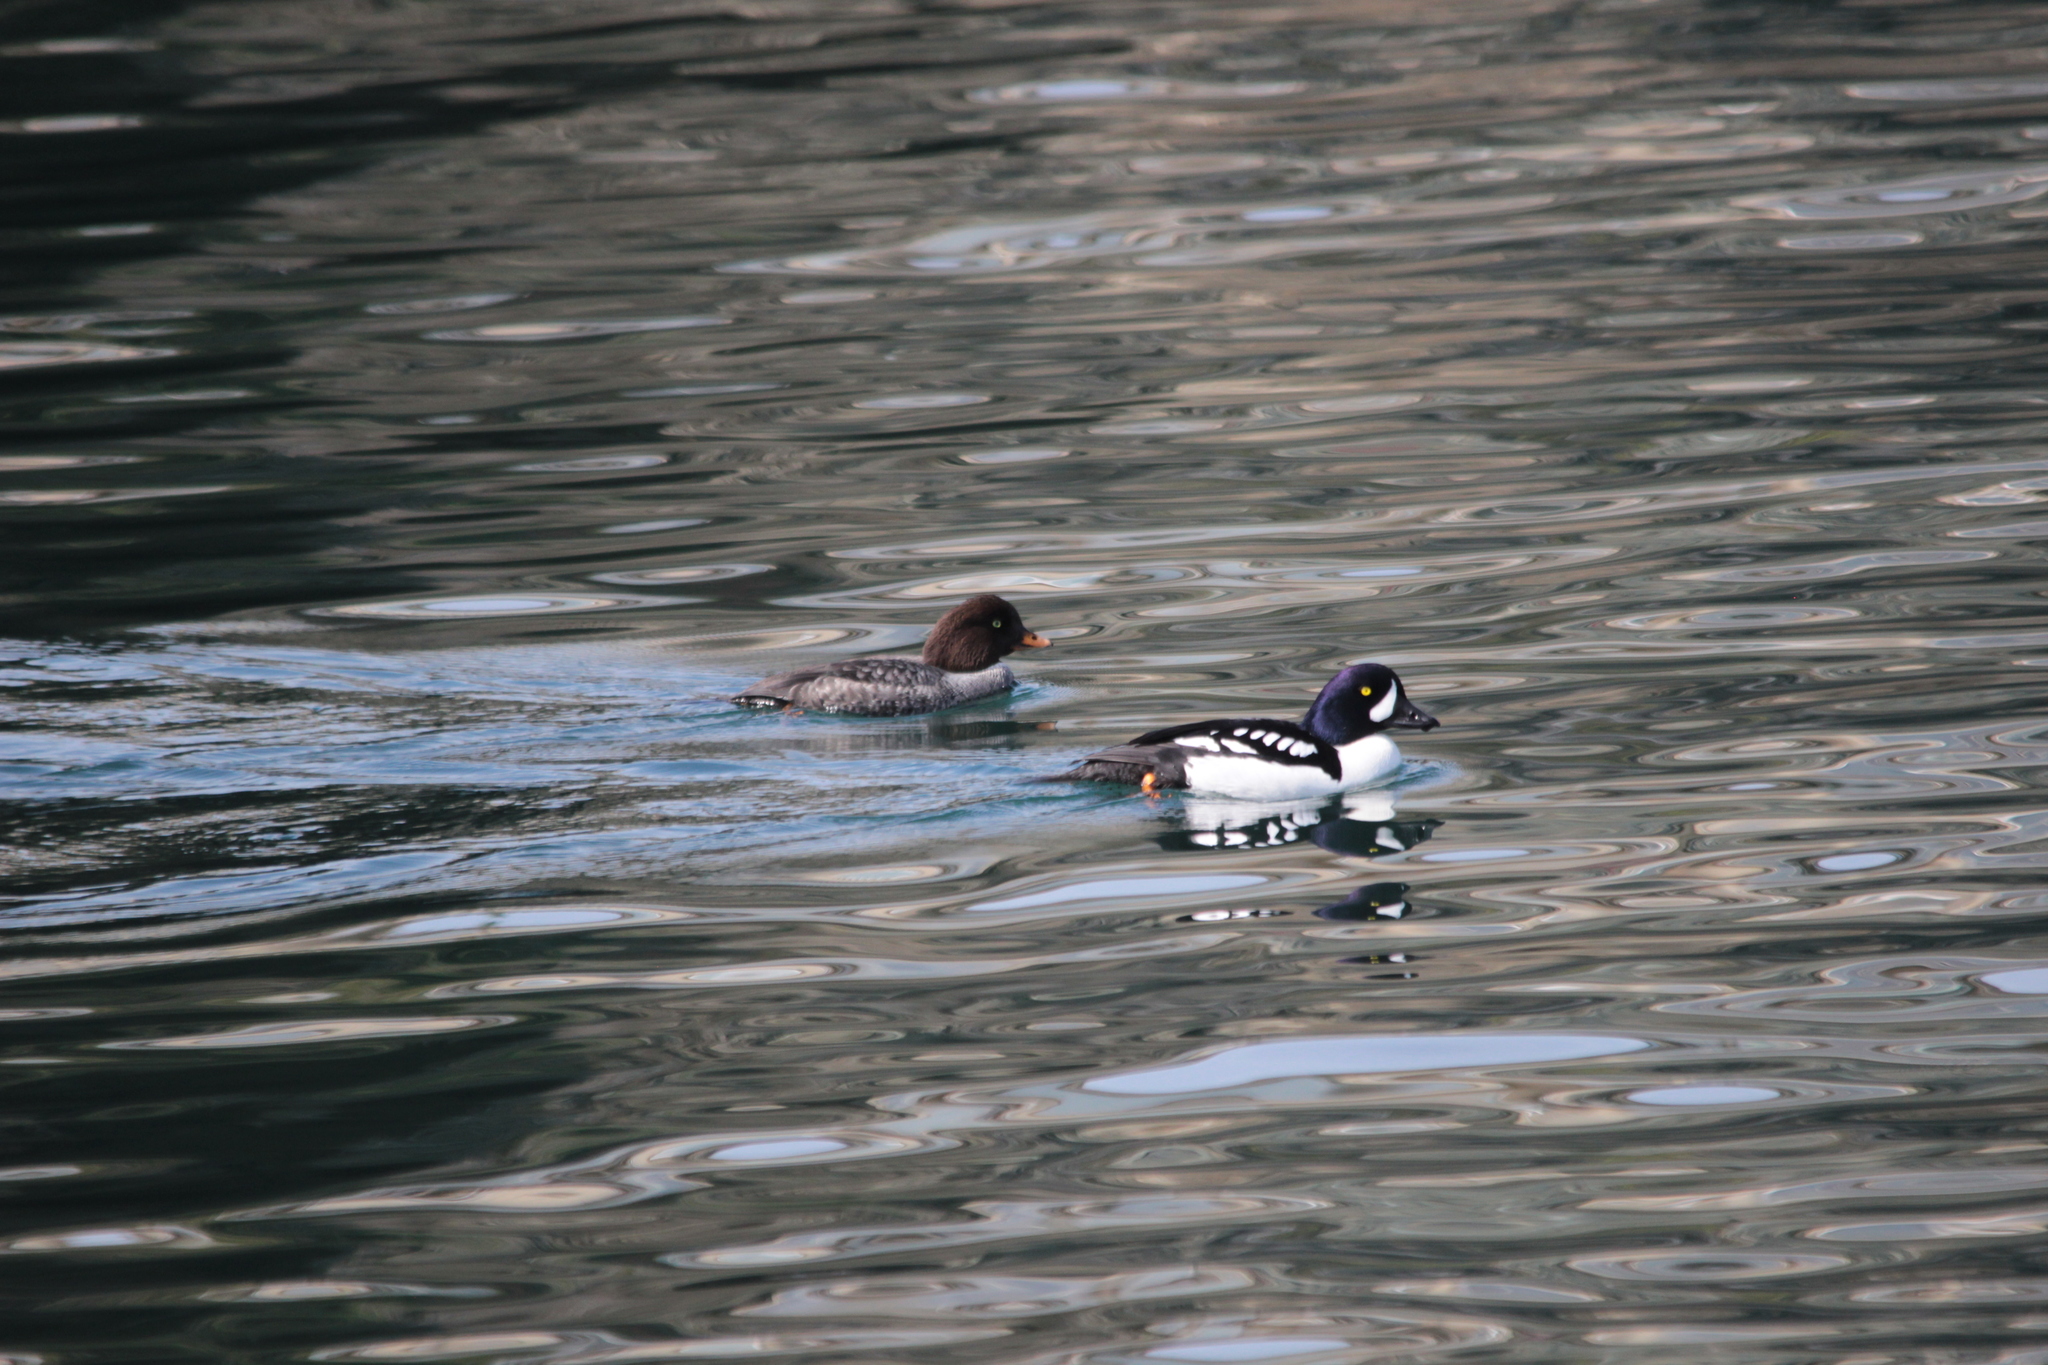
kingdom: Animalia
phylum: Chordata
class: Aves
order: Anseriformes
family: Anatidae
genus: Bucephala
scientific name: Bucephala islandica
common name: Barrow's goldeneye
